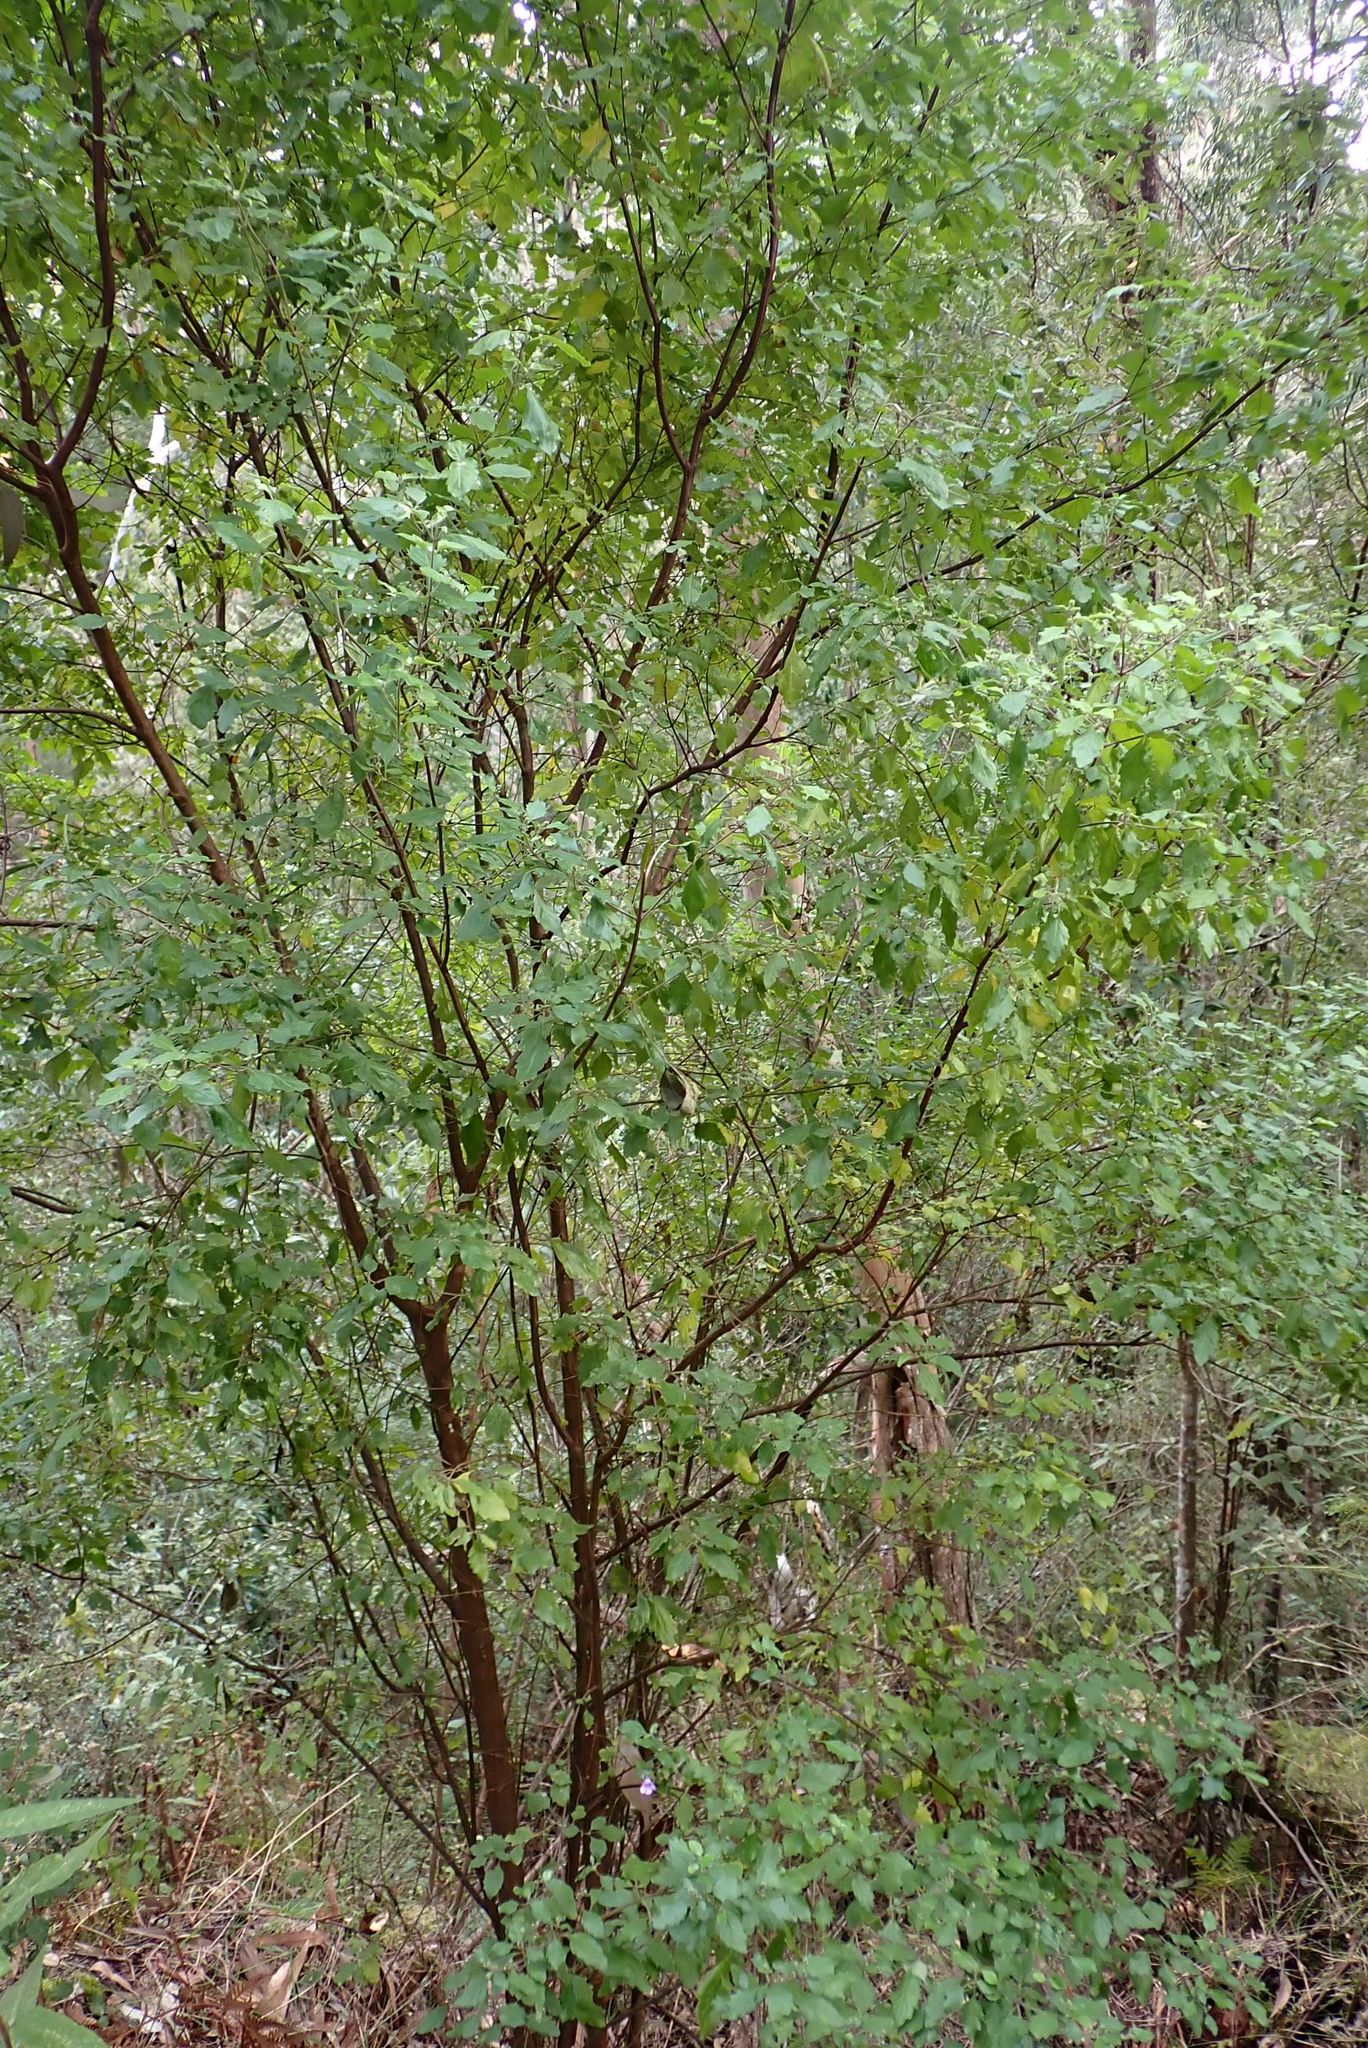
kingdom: Plantae
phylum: Tracheophyta
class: Magnoliopsida
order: Lamiales
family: Lamiaceae
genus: Prostanthera
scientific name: Prostanthera melissifolia
